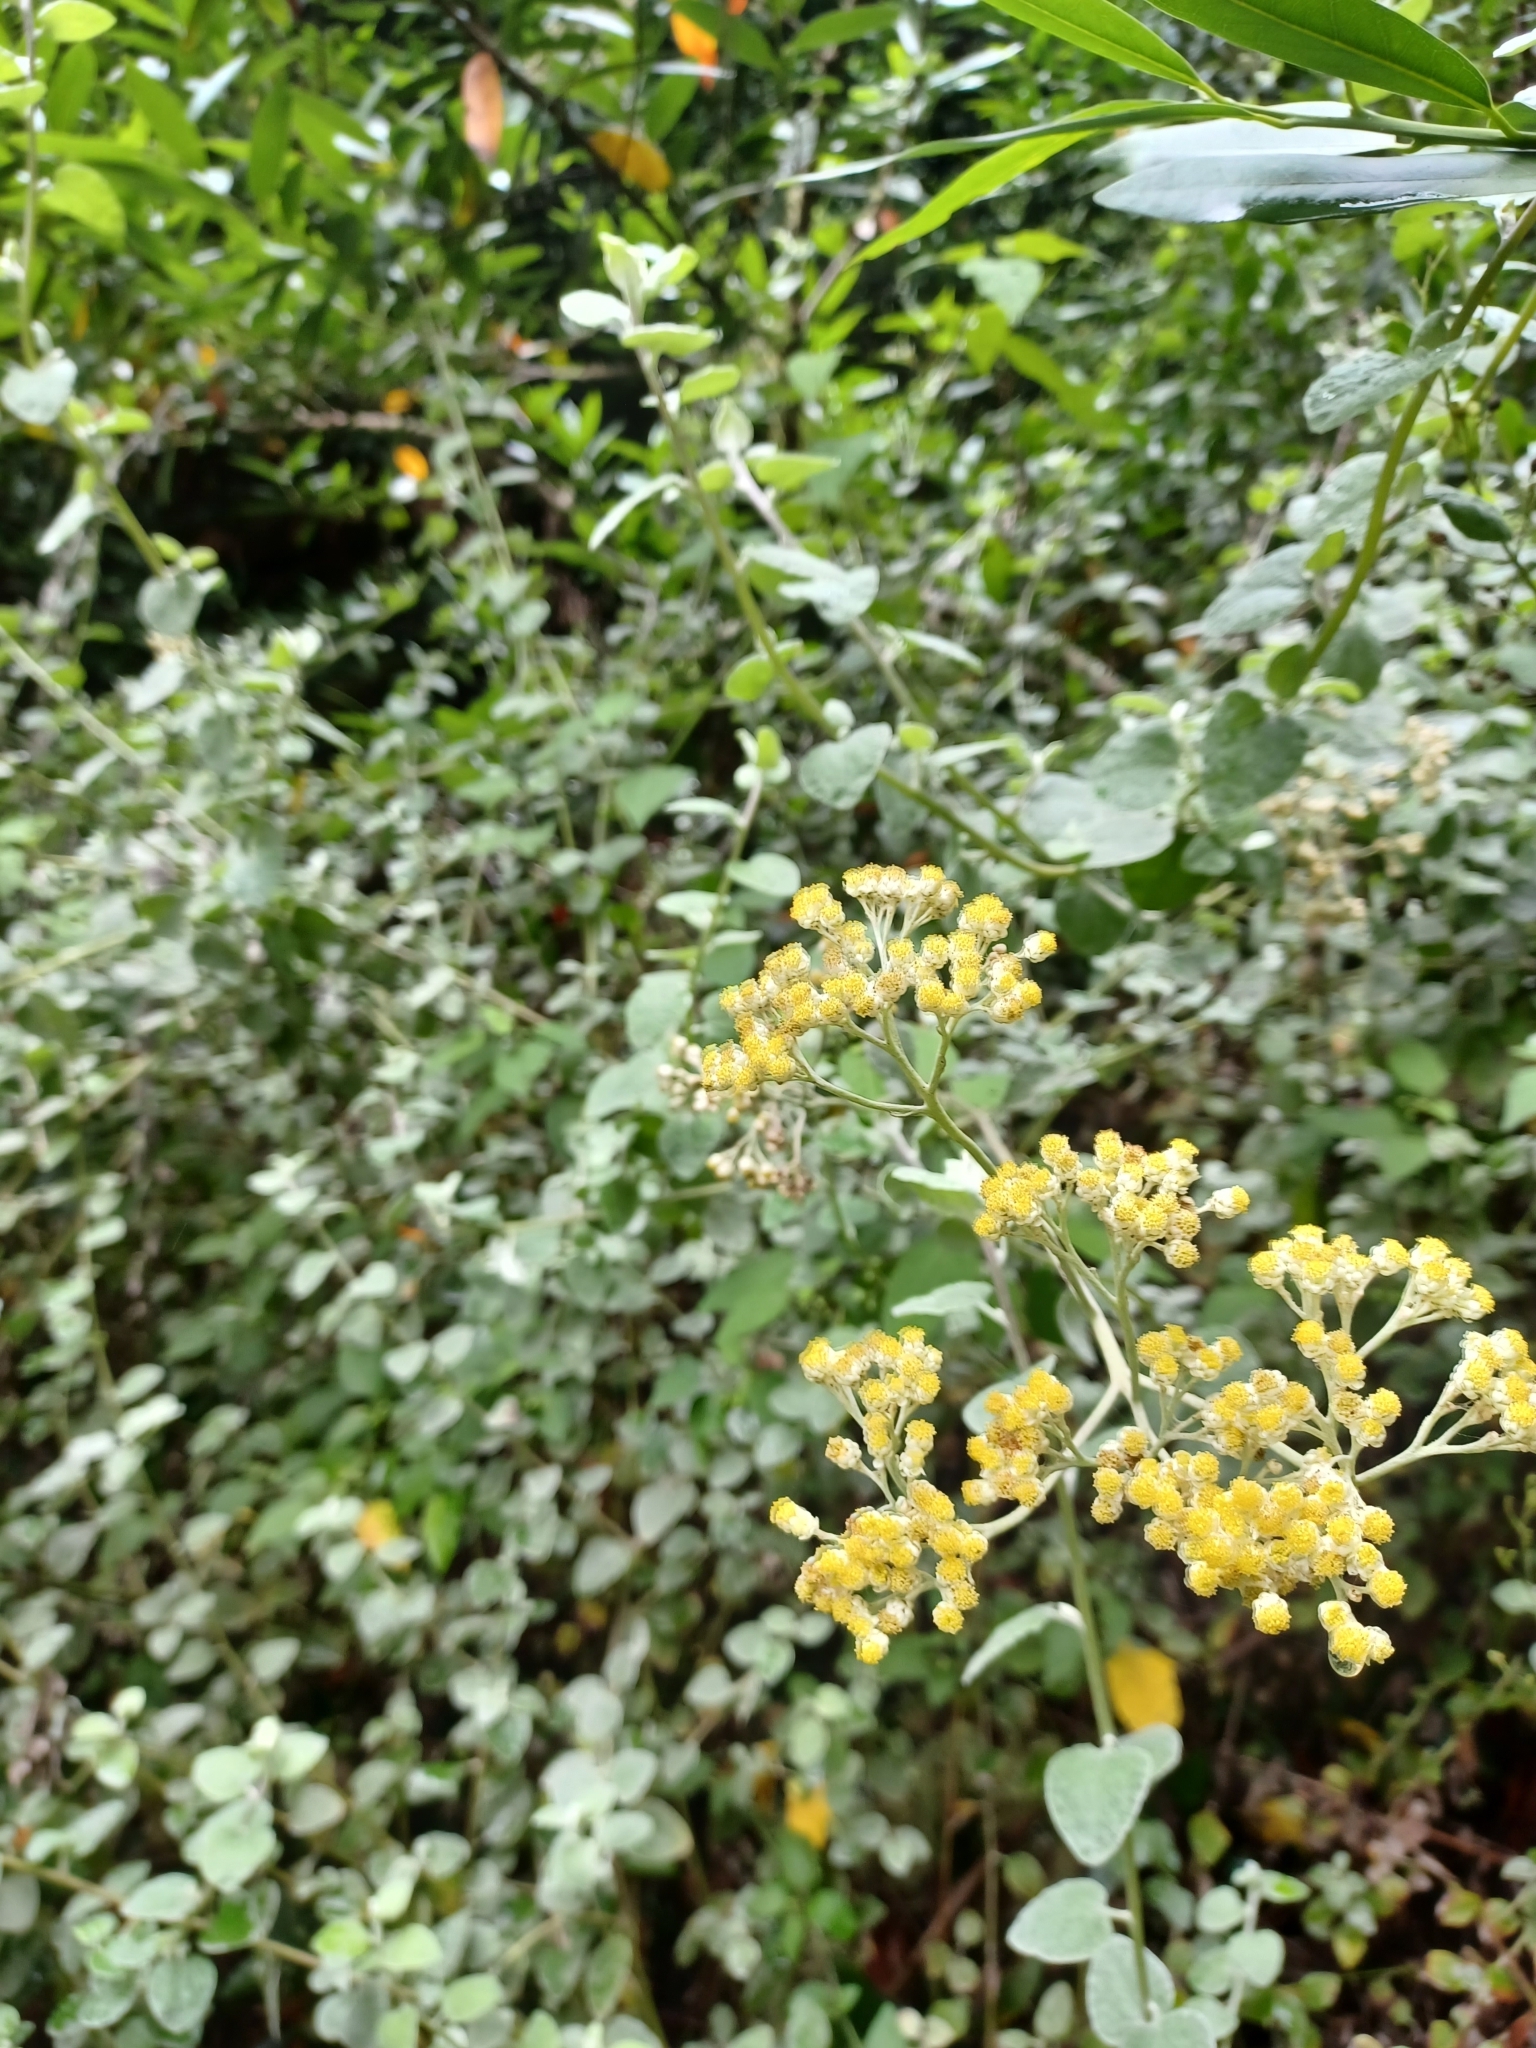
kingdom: Plantae
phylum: Tracheophyta
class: Magnoliopsida
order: Asterales
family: Asteraceae
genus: Helichrysum
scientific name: Helichrysum petiolare
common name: Licorice-plant
